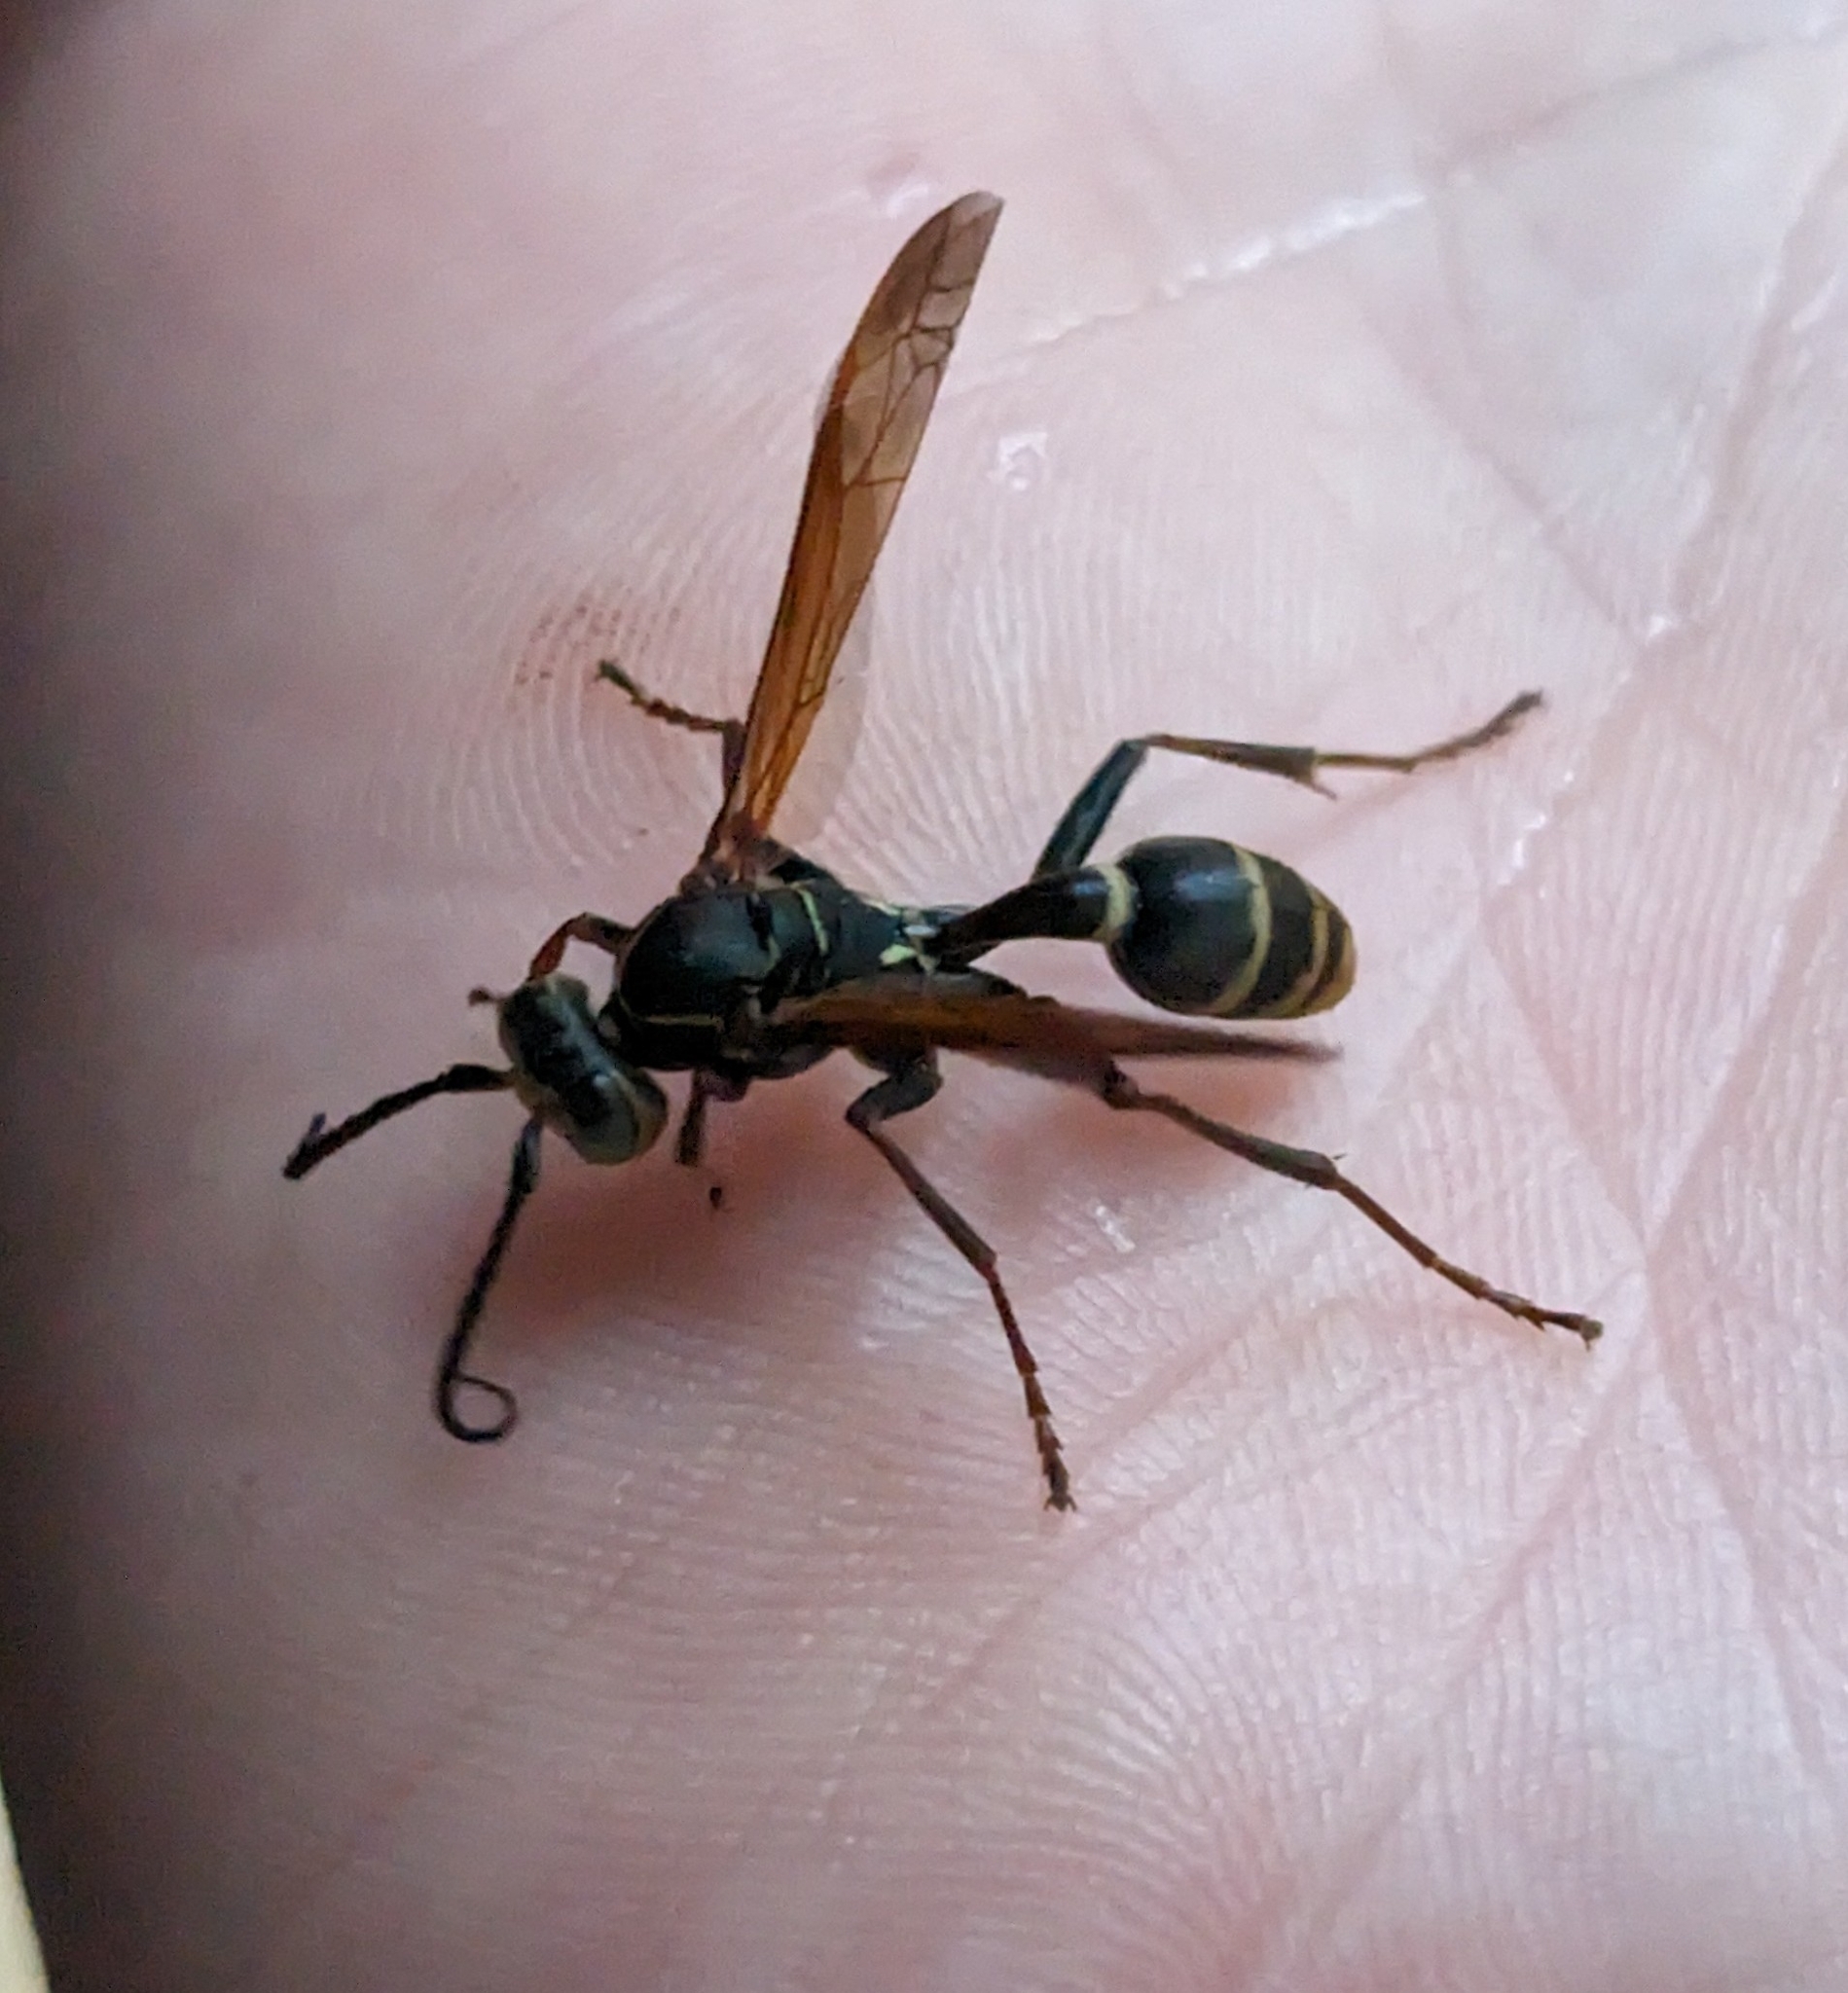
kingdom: Animalia
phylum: Arthropoda
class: Insecta
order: Hymenoptera
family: Vespidae
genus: Mischocyttarus
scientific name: Mischocyttarus flavitarsis
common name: Wasp
